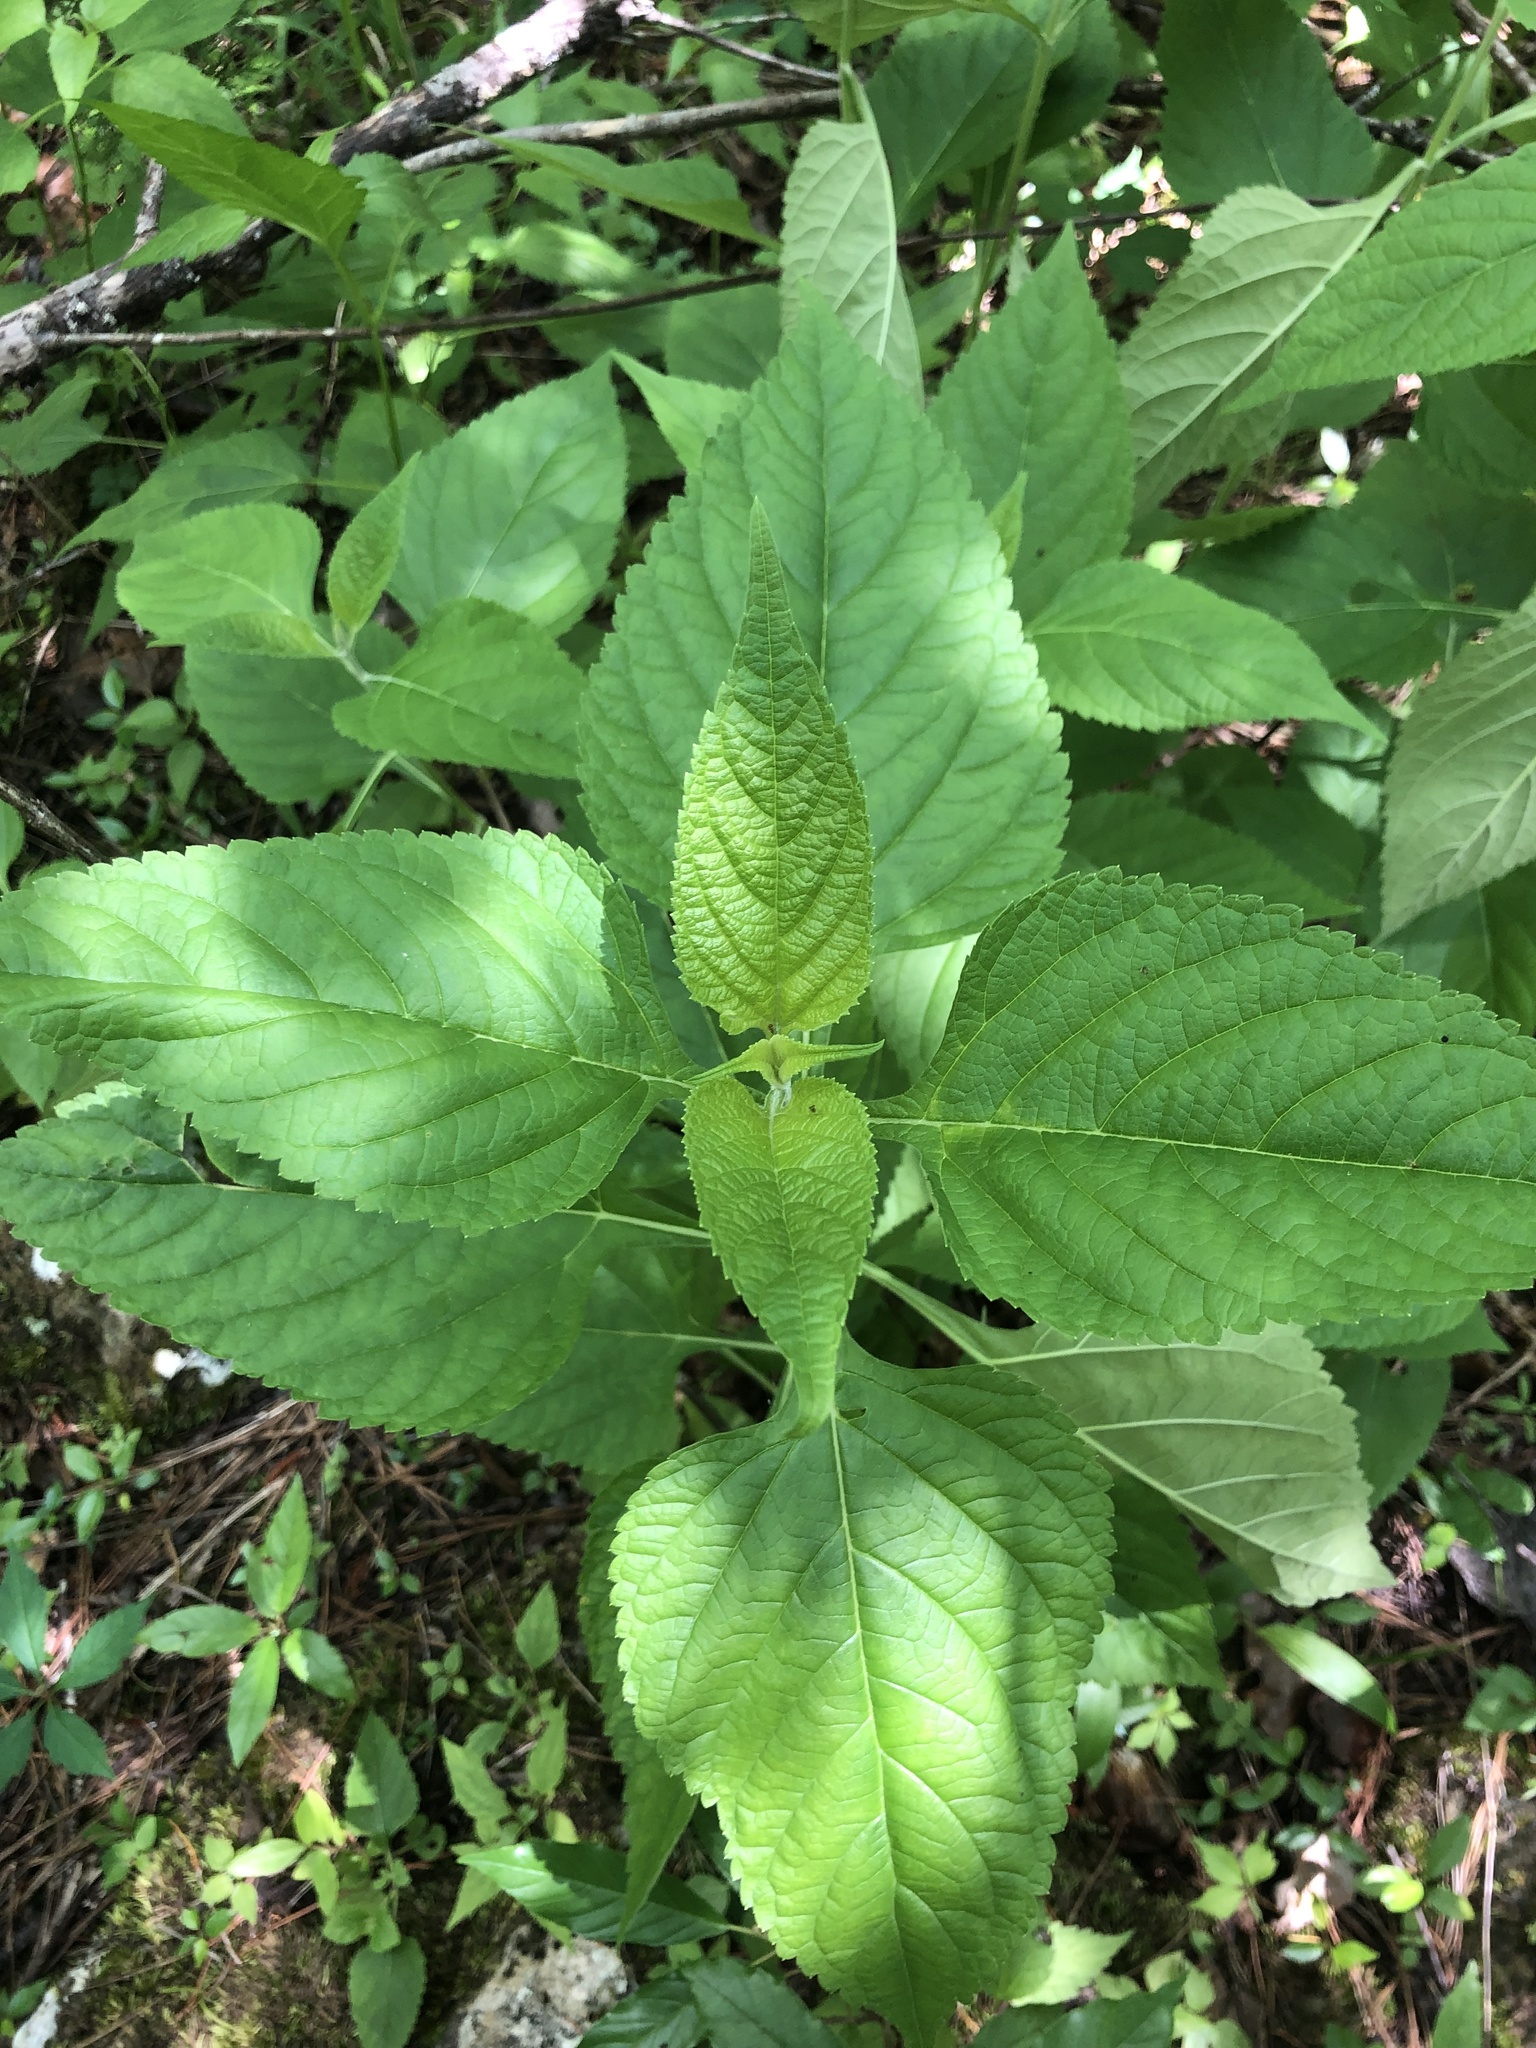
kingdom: Plantae
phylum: Tracheophyta
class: Magnoliopsida
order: Lamiales
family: Lamiaceae
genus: Salvia
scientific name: Salvia chapmanii
